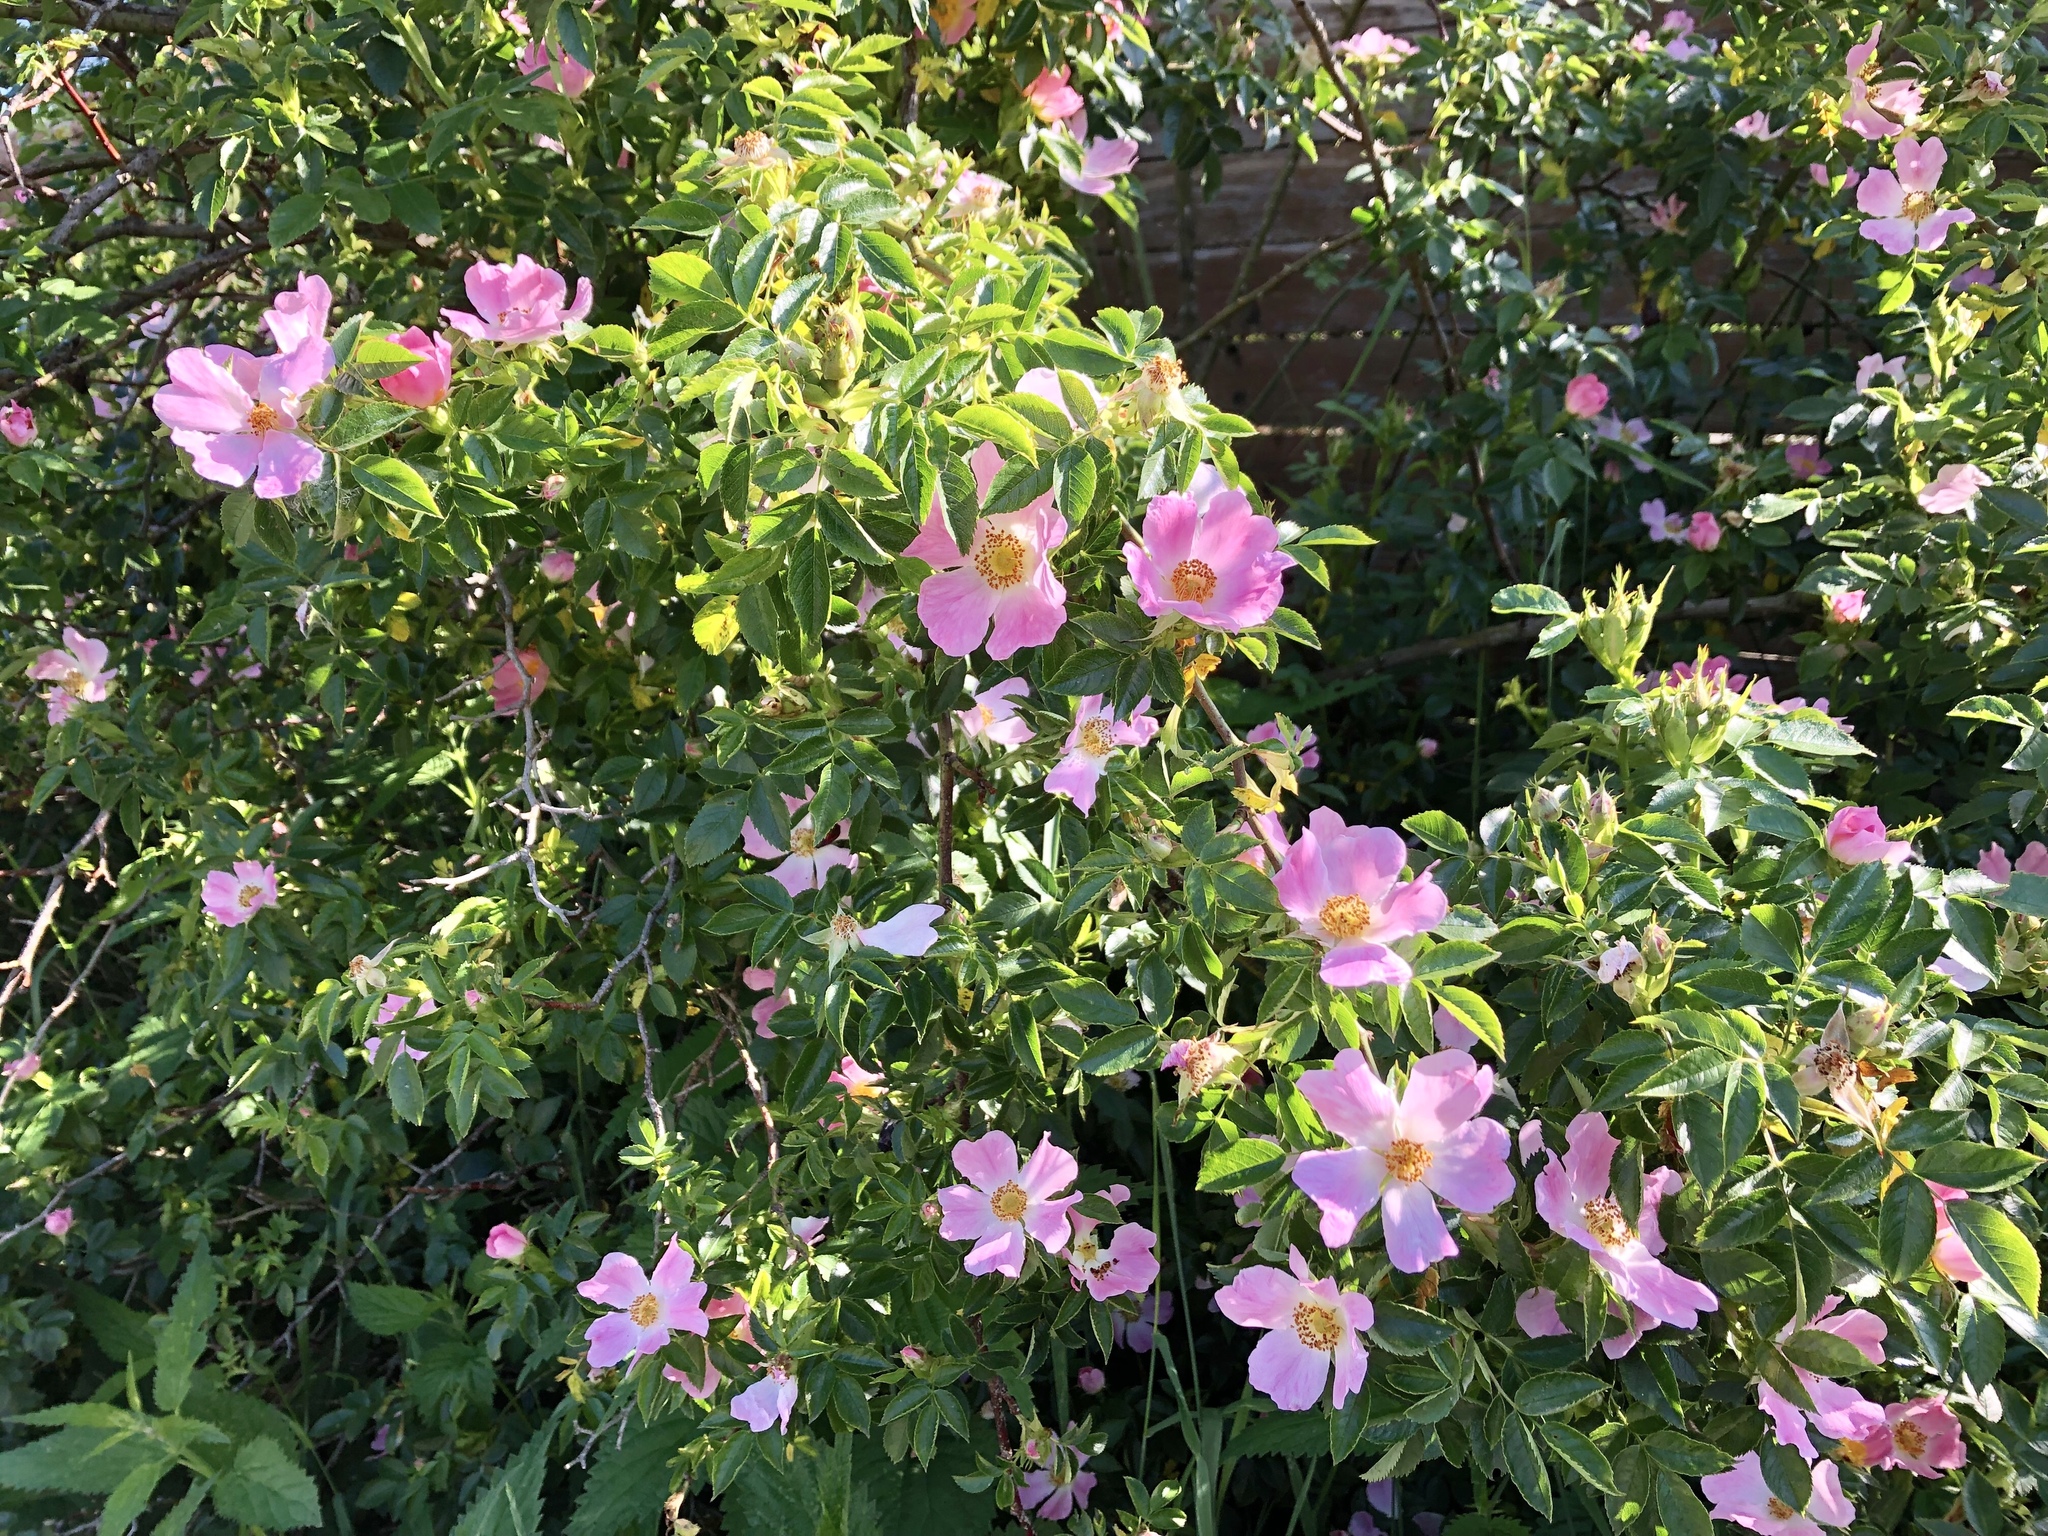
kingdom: Plantae
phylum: Tracheophyta
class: Magnoliopsida
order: Rosales
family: Rosaceae
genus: Rosa
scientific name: Rosa canina
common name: Dog rose
